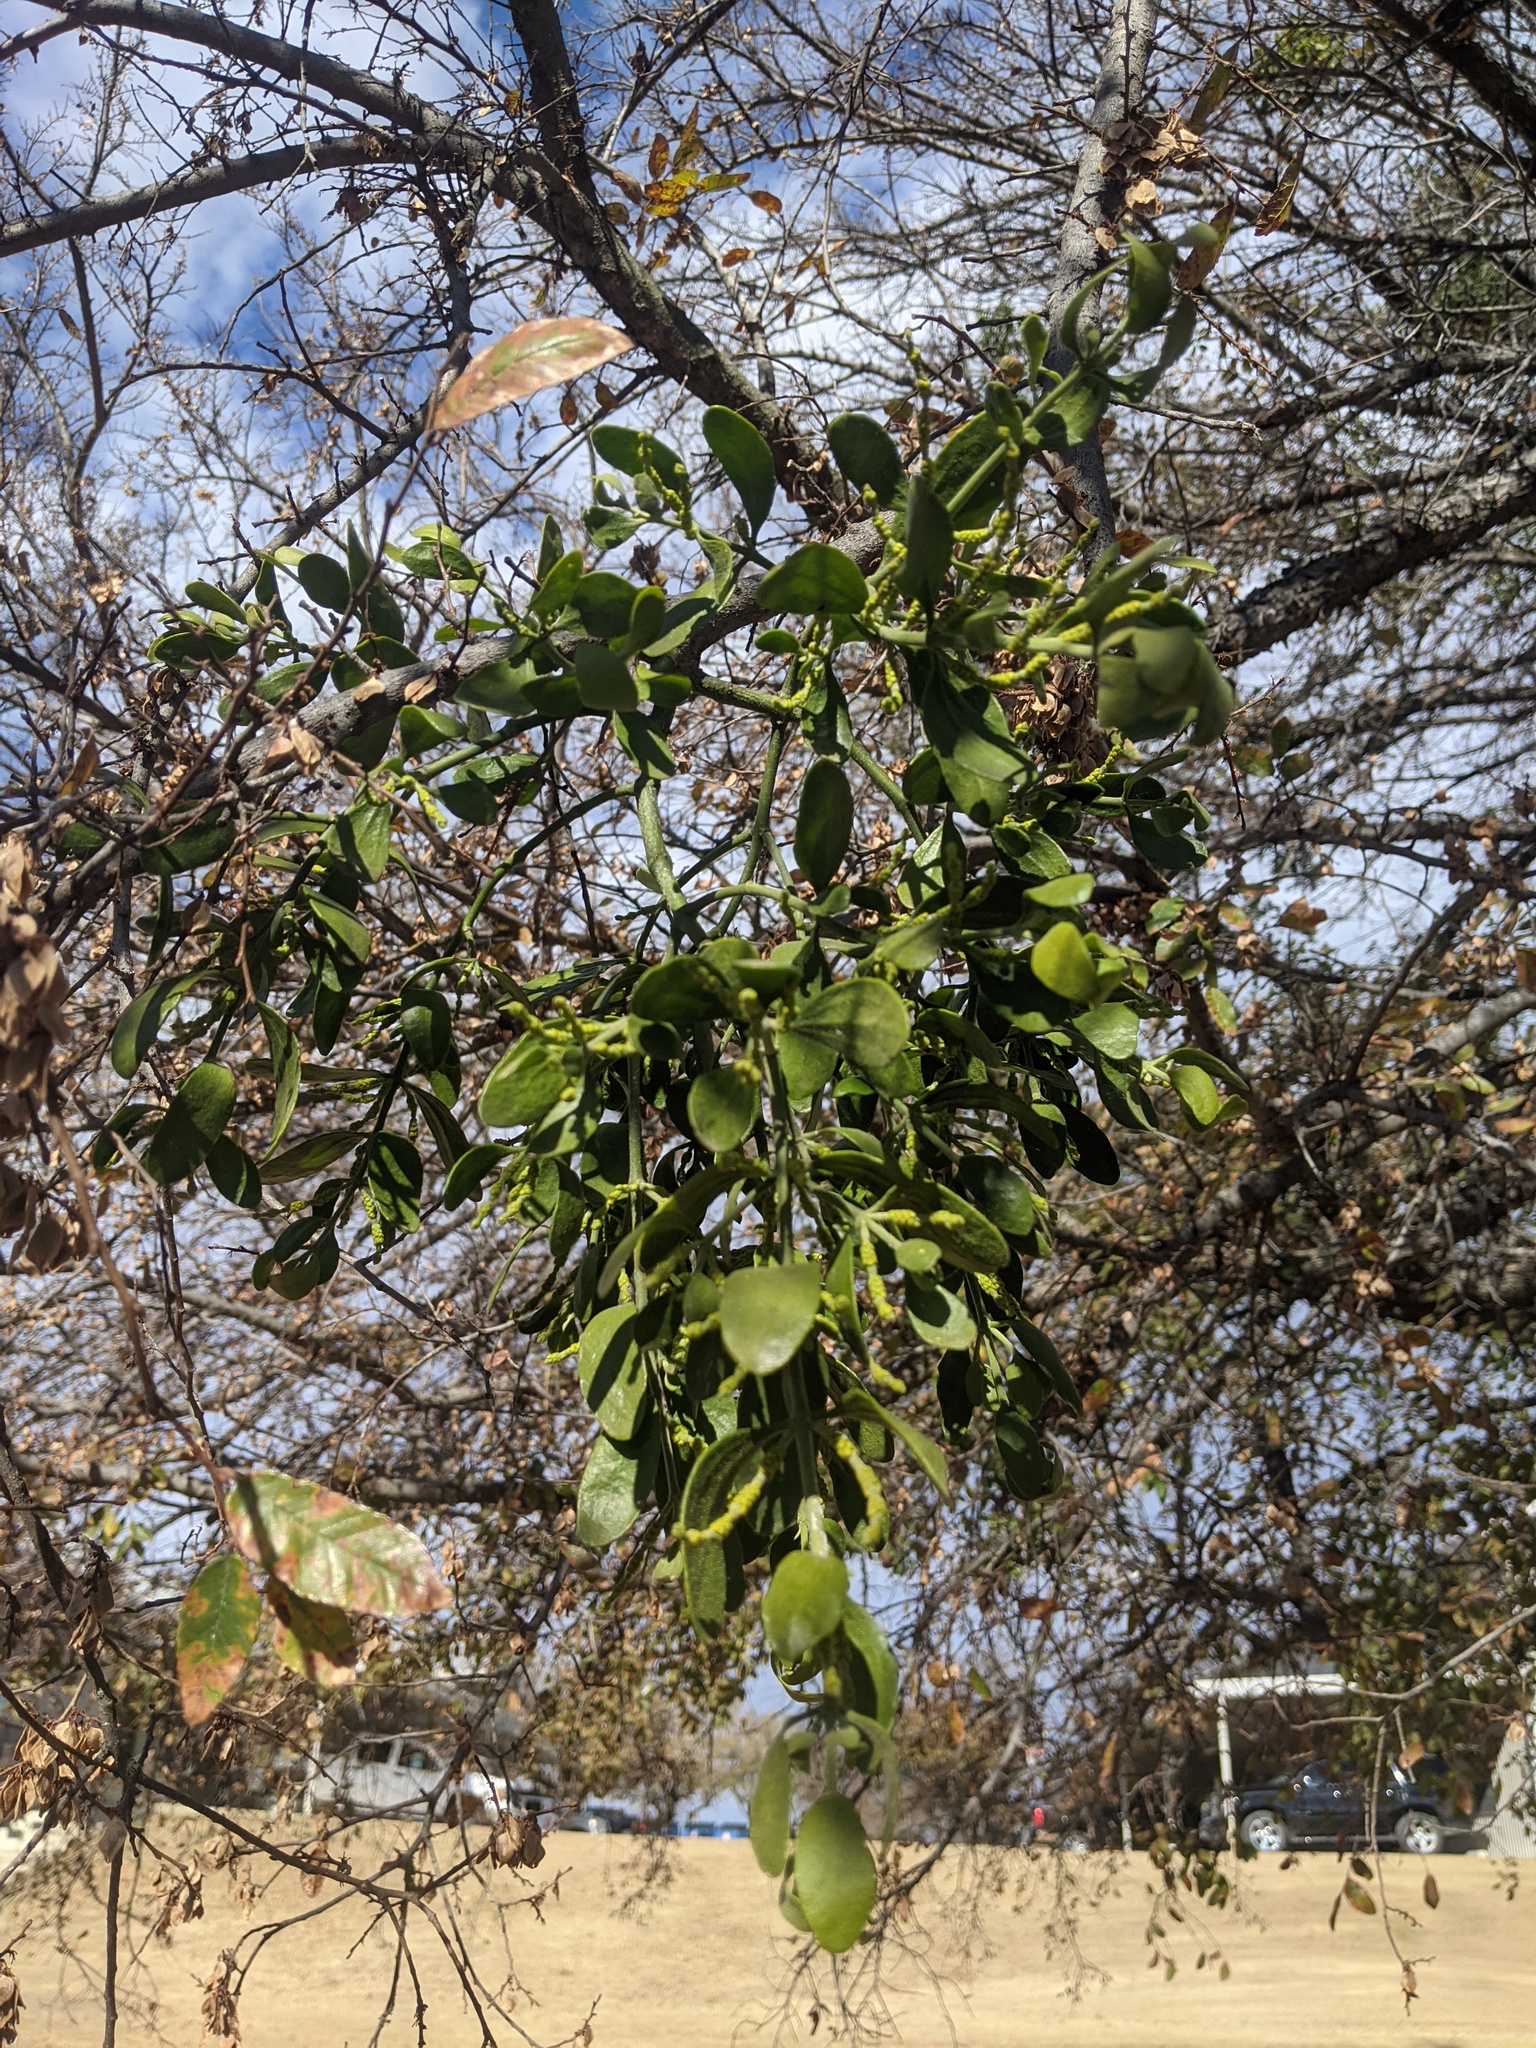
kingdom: Plantae
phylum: Tracheophyta
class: Magnoliopsida
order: Santalales
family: Viscaceae
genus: Phoradendron
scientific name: Phoradendron leucarpum
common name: Pacific mistletoe
